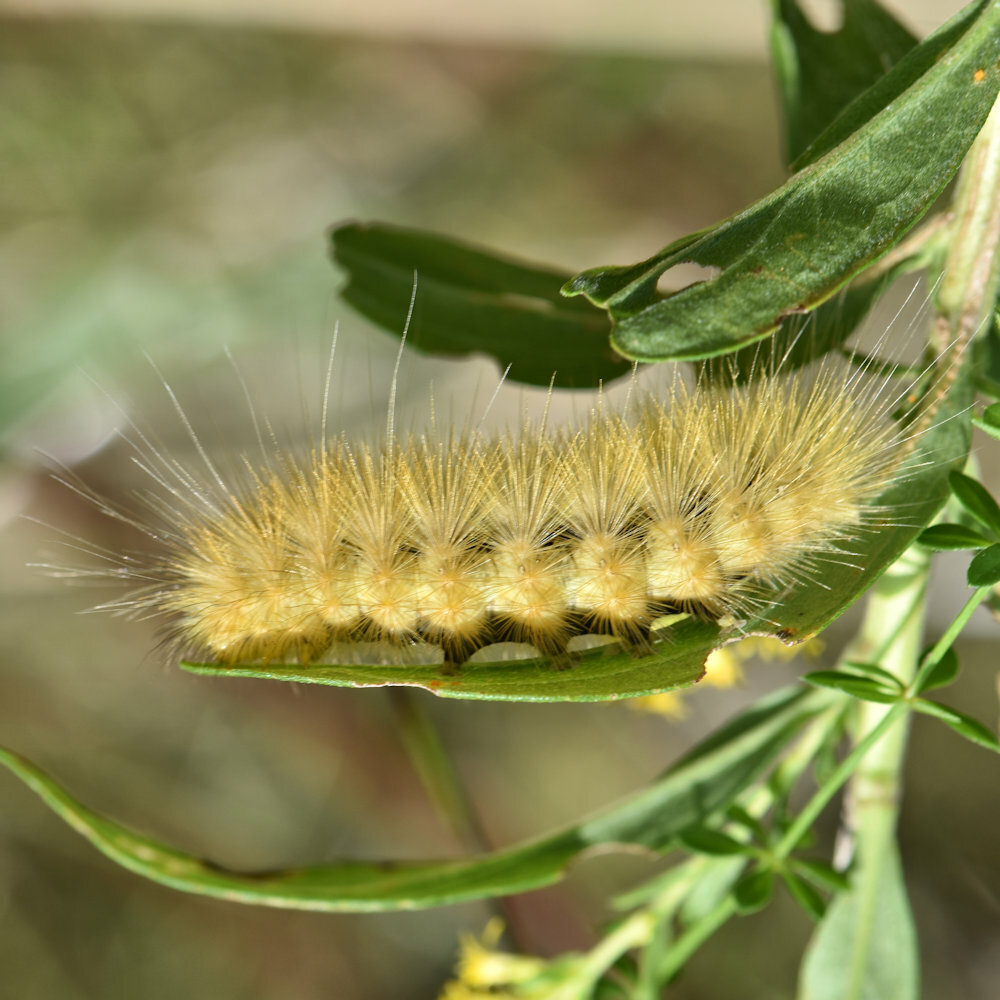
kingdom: Animalia
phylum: Arthropoda
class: Insecta
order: Lepidoptera
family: Erebidae
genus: Spilosoma
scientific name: Spilosoma virginica
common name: Virginia tiger moth
